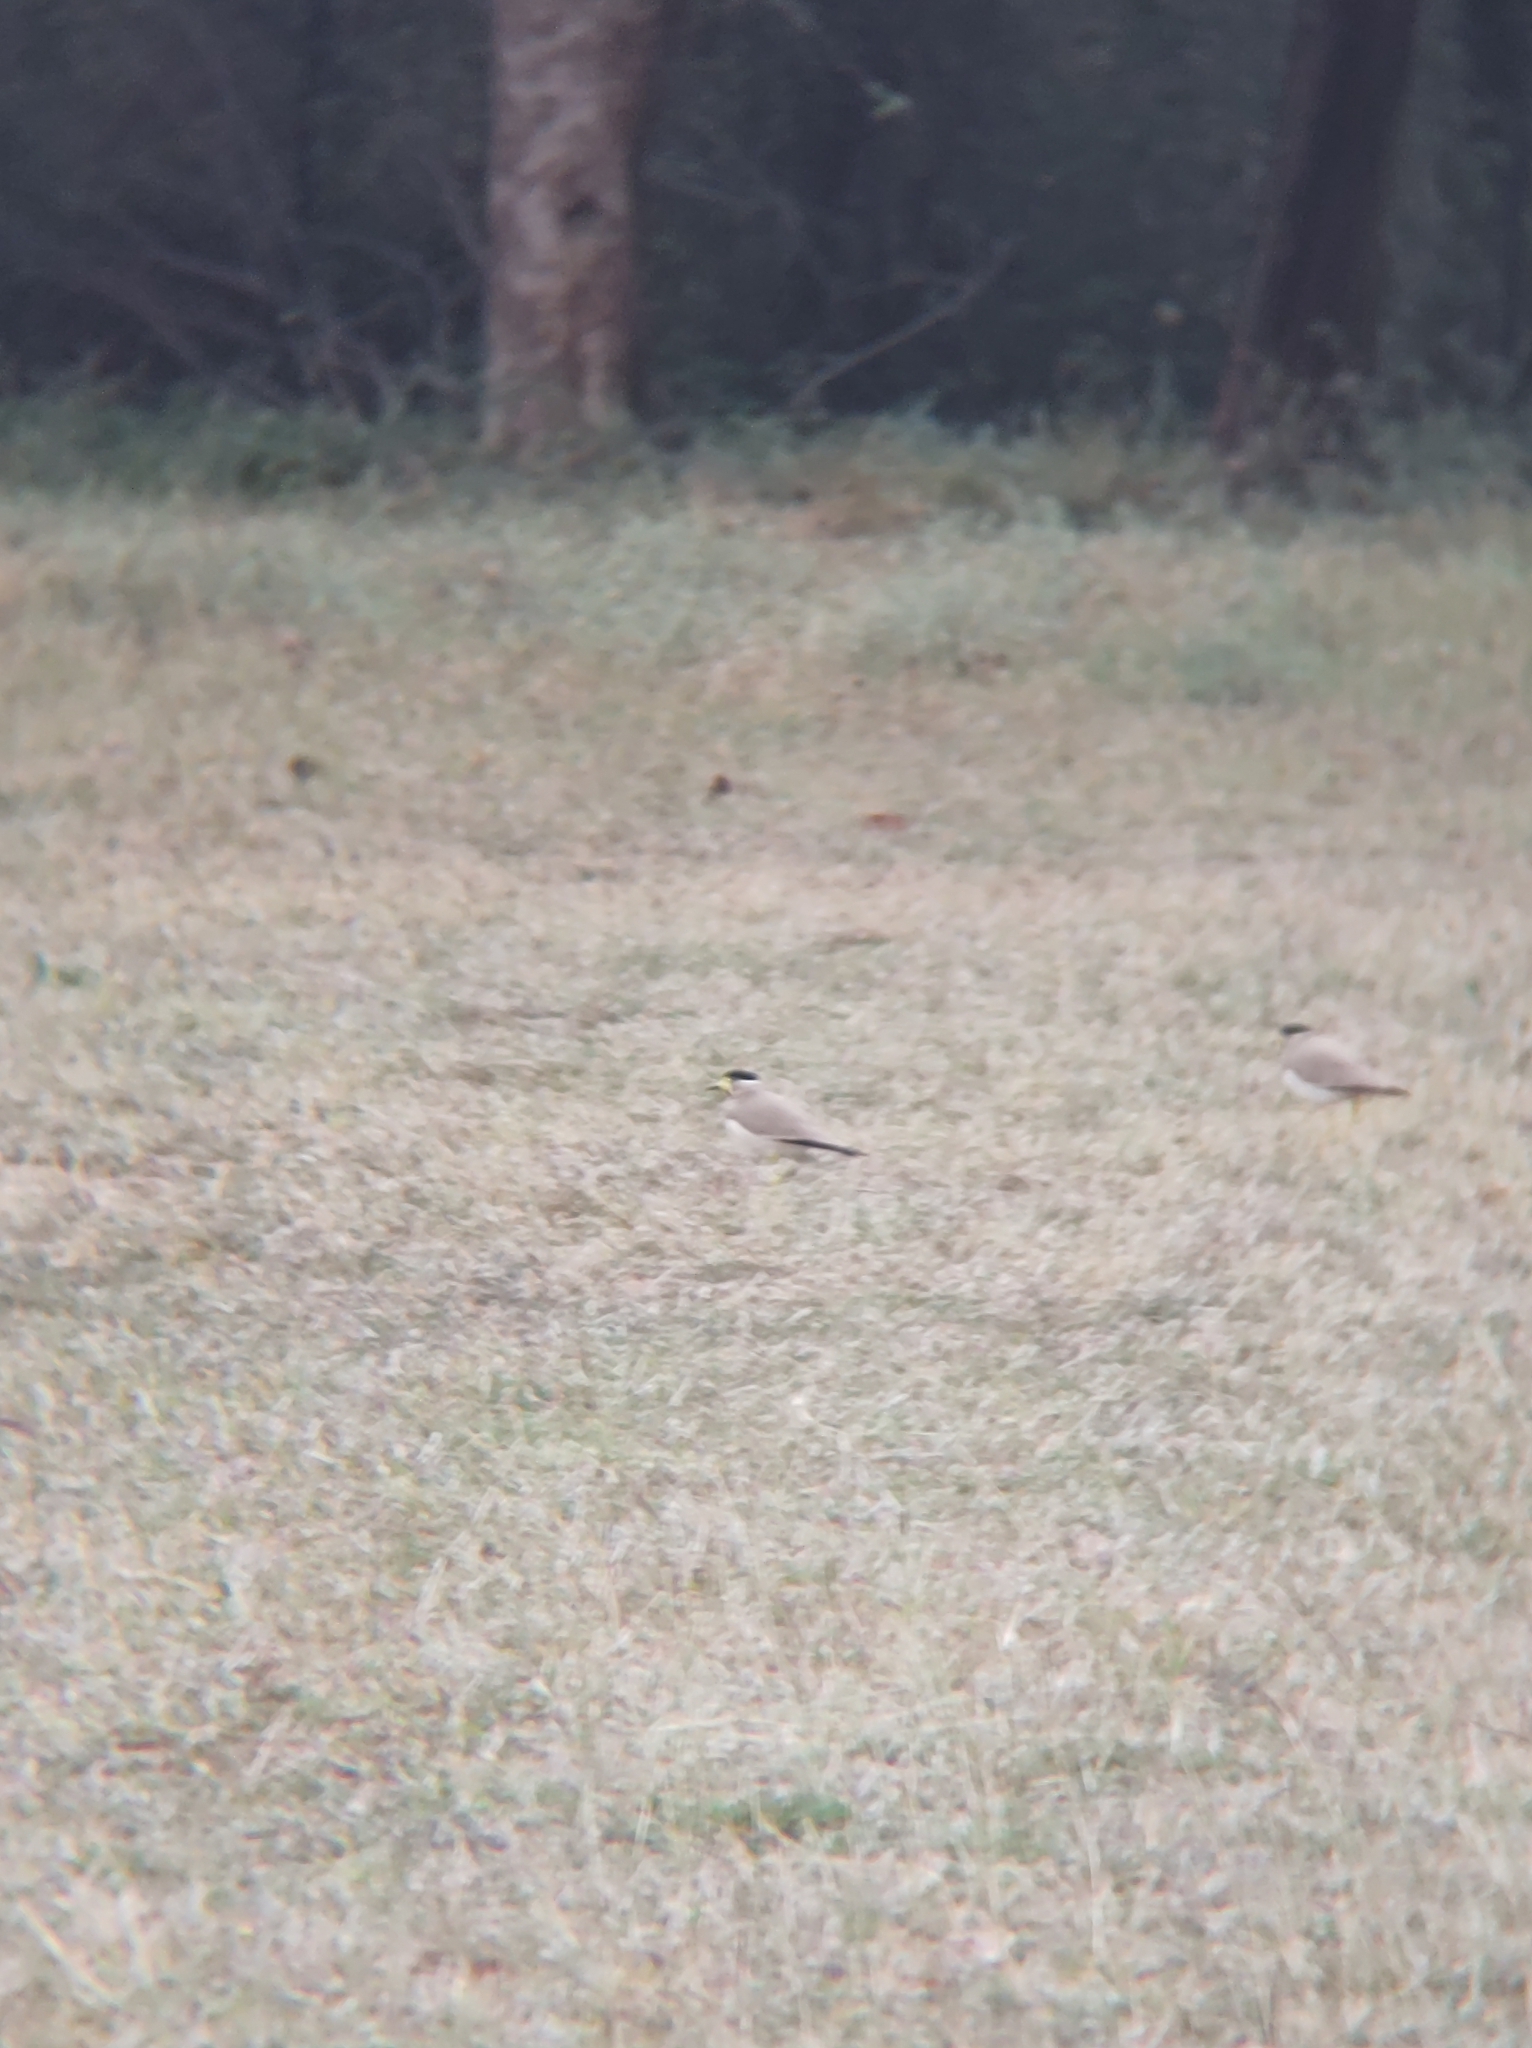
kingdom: Animalia
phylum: Chordata
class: Aves
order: Charadriiformes
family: Charadriidae
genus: Vanellus
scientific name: Vanellus malabaricus
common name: Yellow-wattled lapwing
